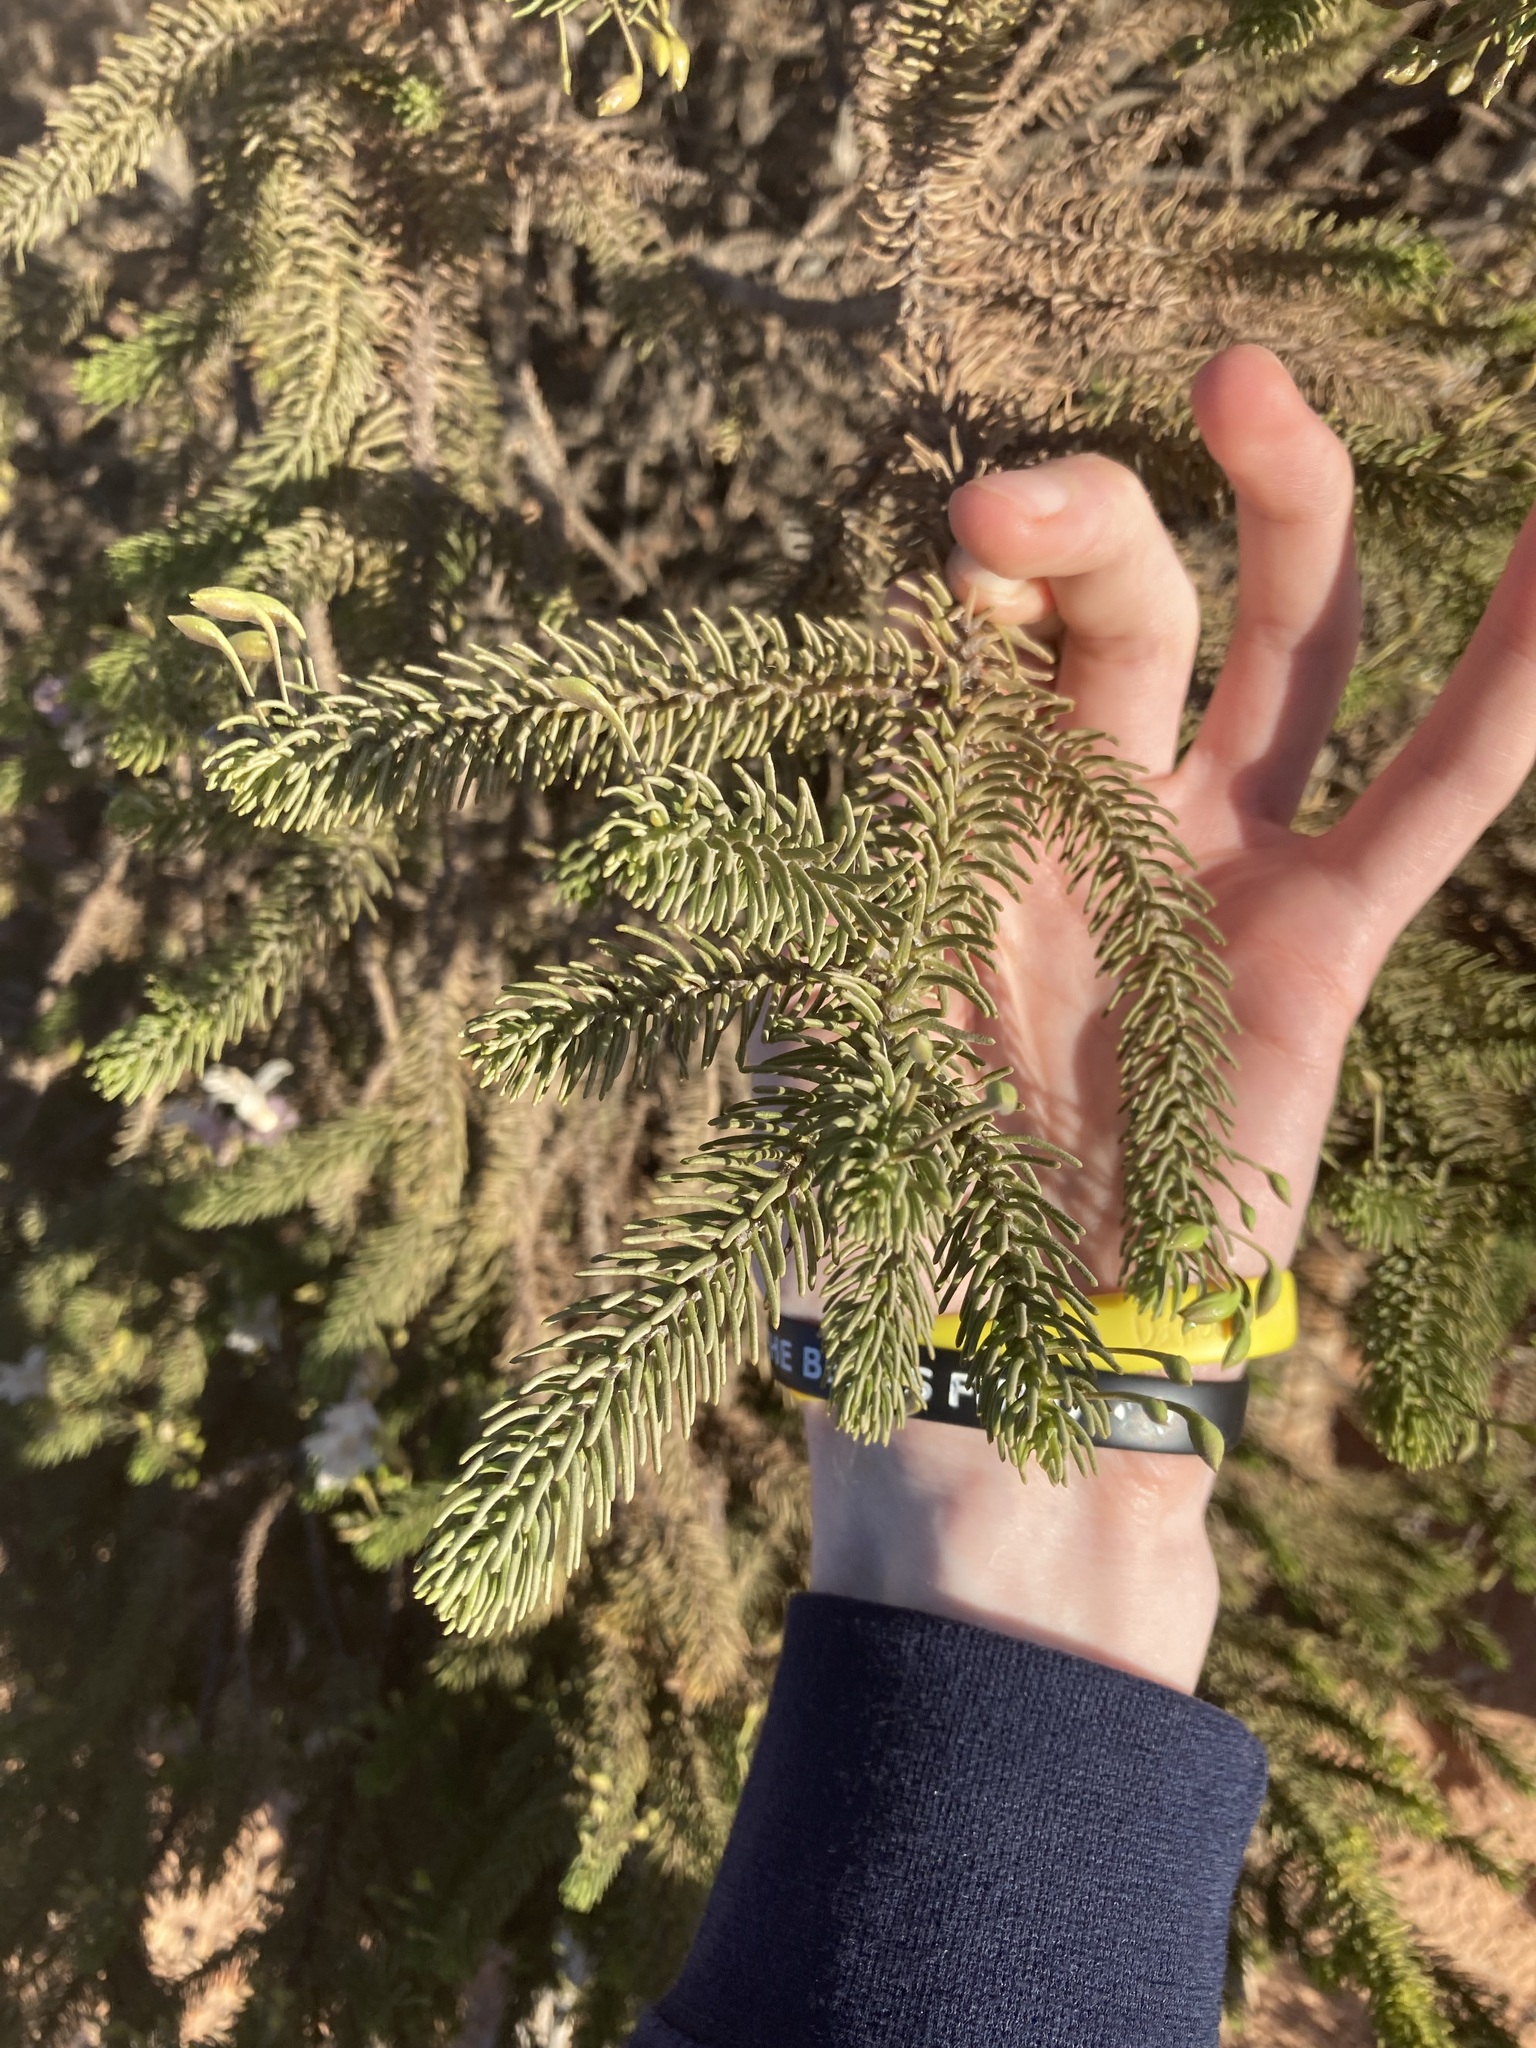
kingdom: Plantae
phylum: Tracheophyta
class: Magnoliopsida
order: Lamiales
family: Scrophulariaceae
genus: Eremophila
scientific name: Eremophila abietina
